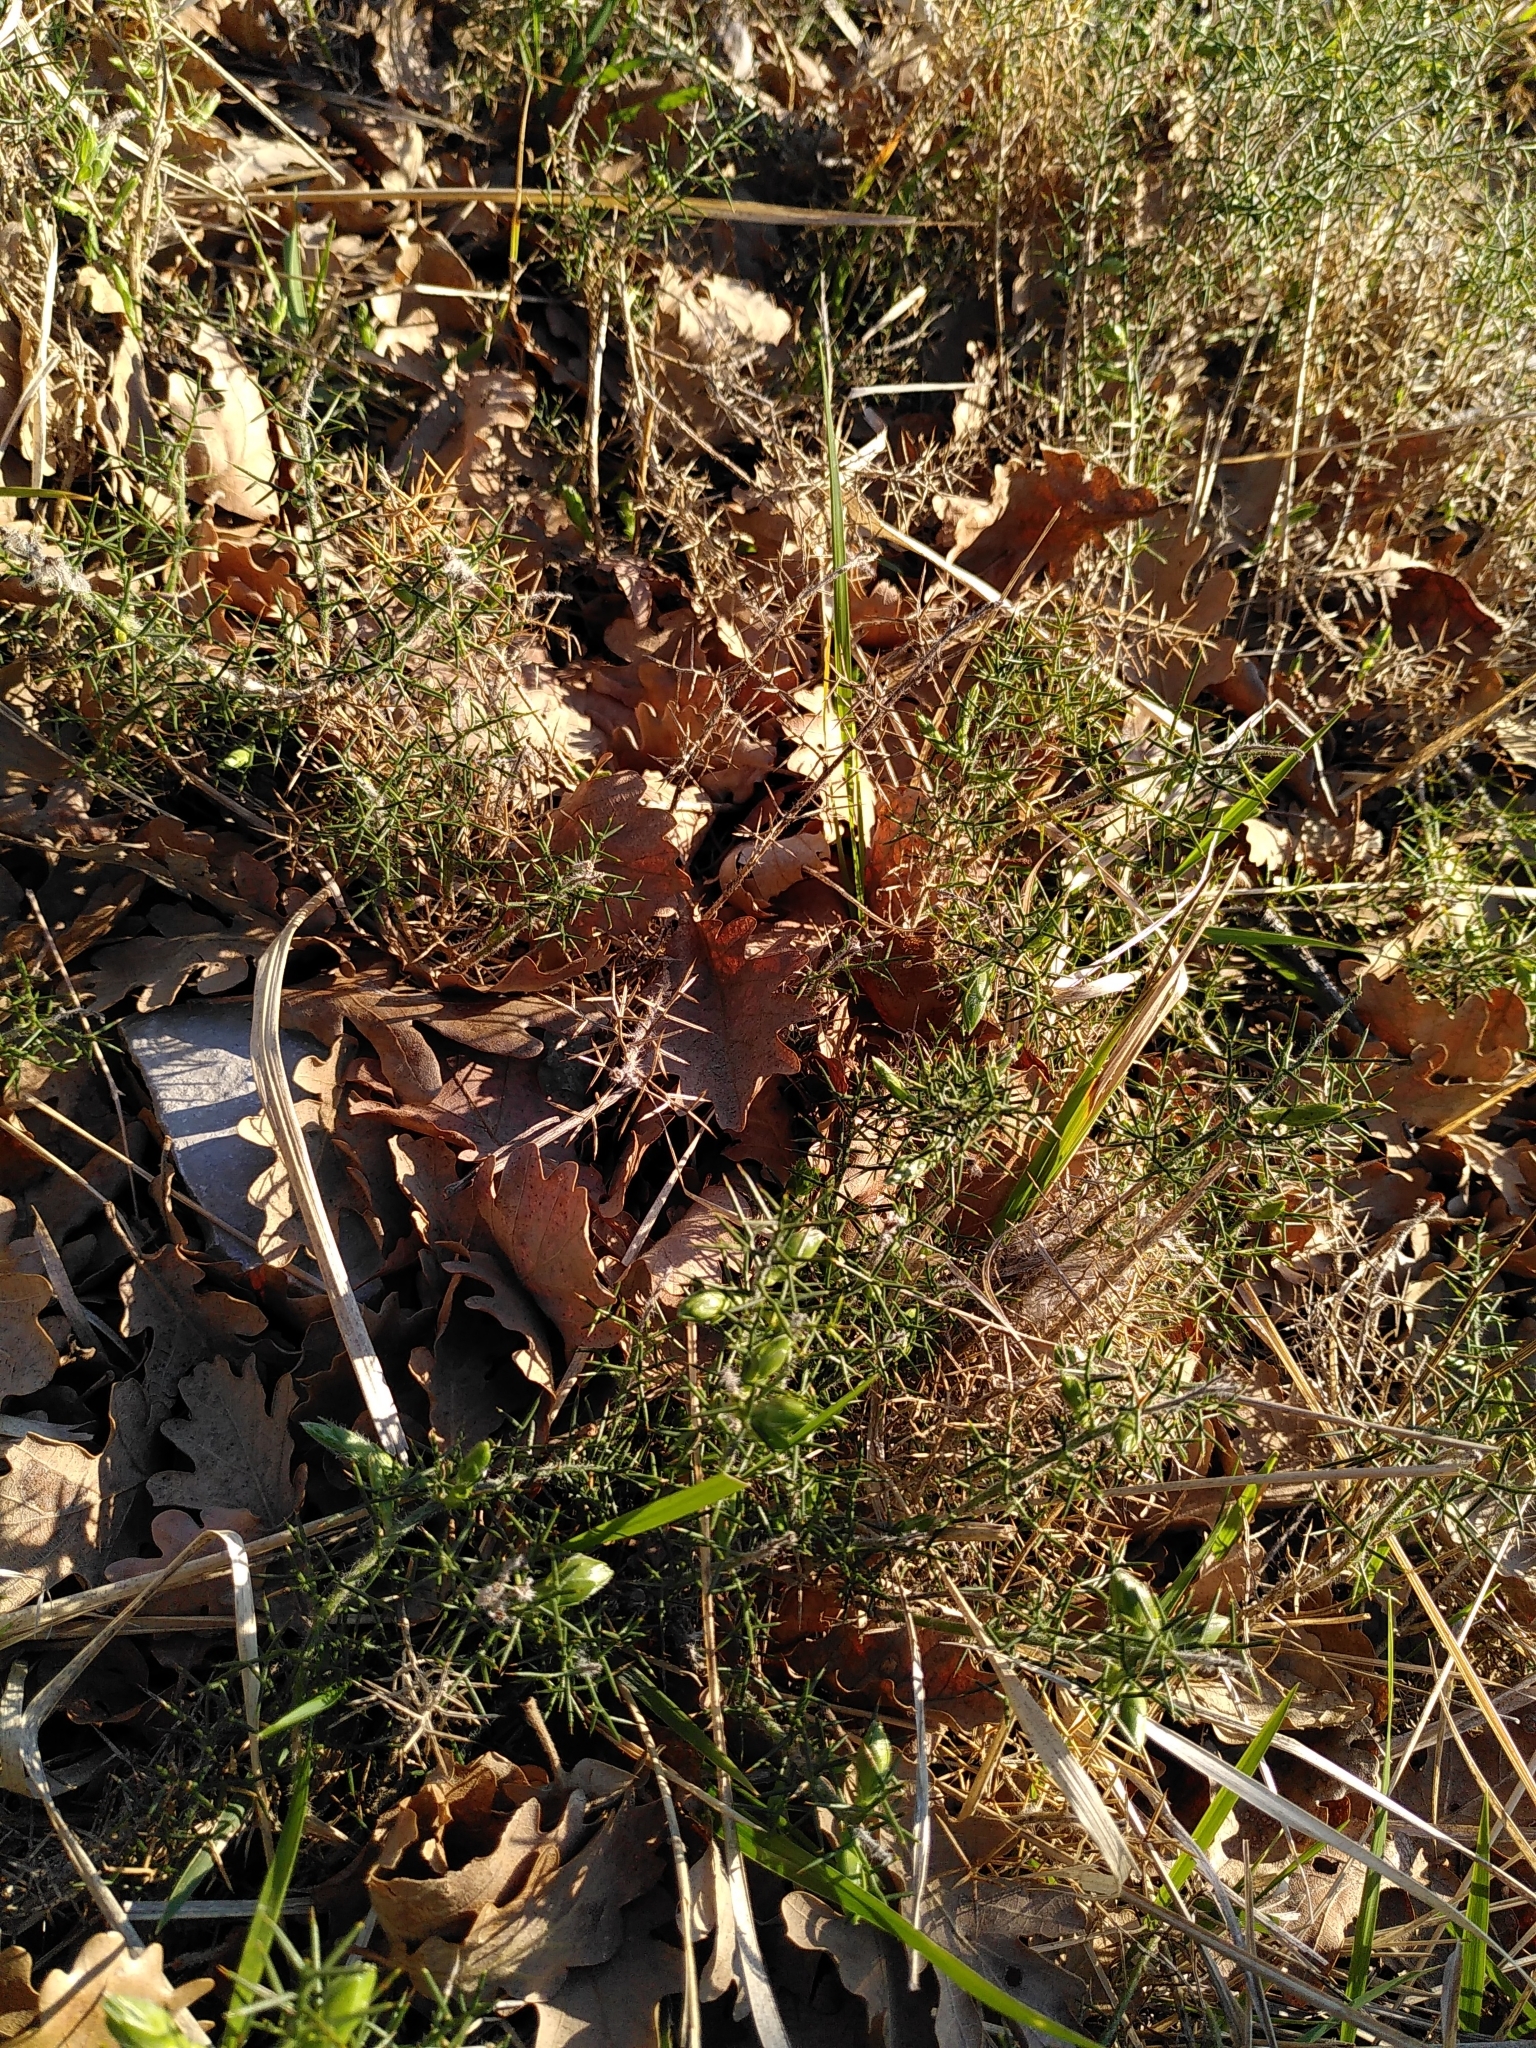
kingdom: Plantae
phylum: Tracheophyta
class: Magnoliopsida
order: Fabales
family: Fabaceae
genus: Genista
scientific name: Genista hispanica
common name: Spanish gorse
